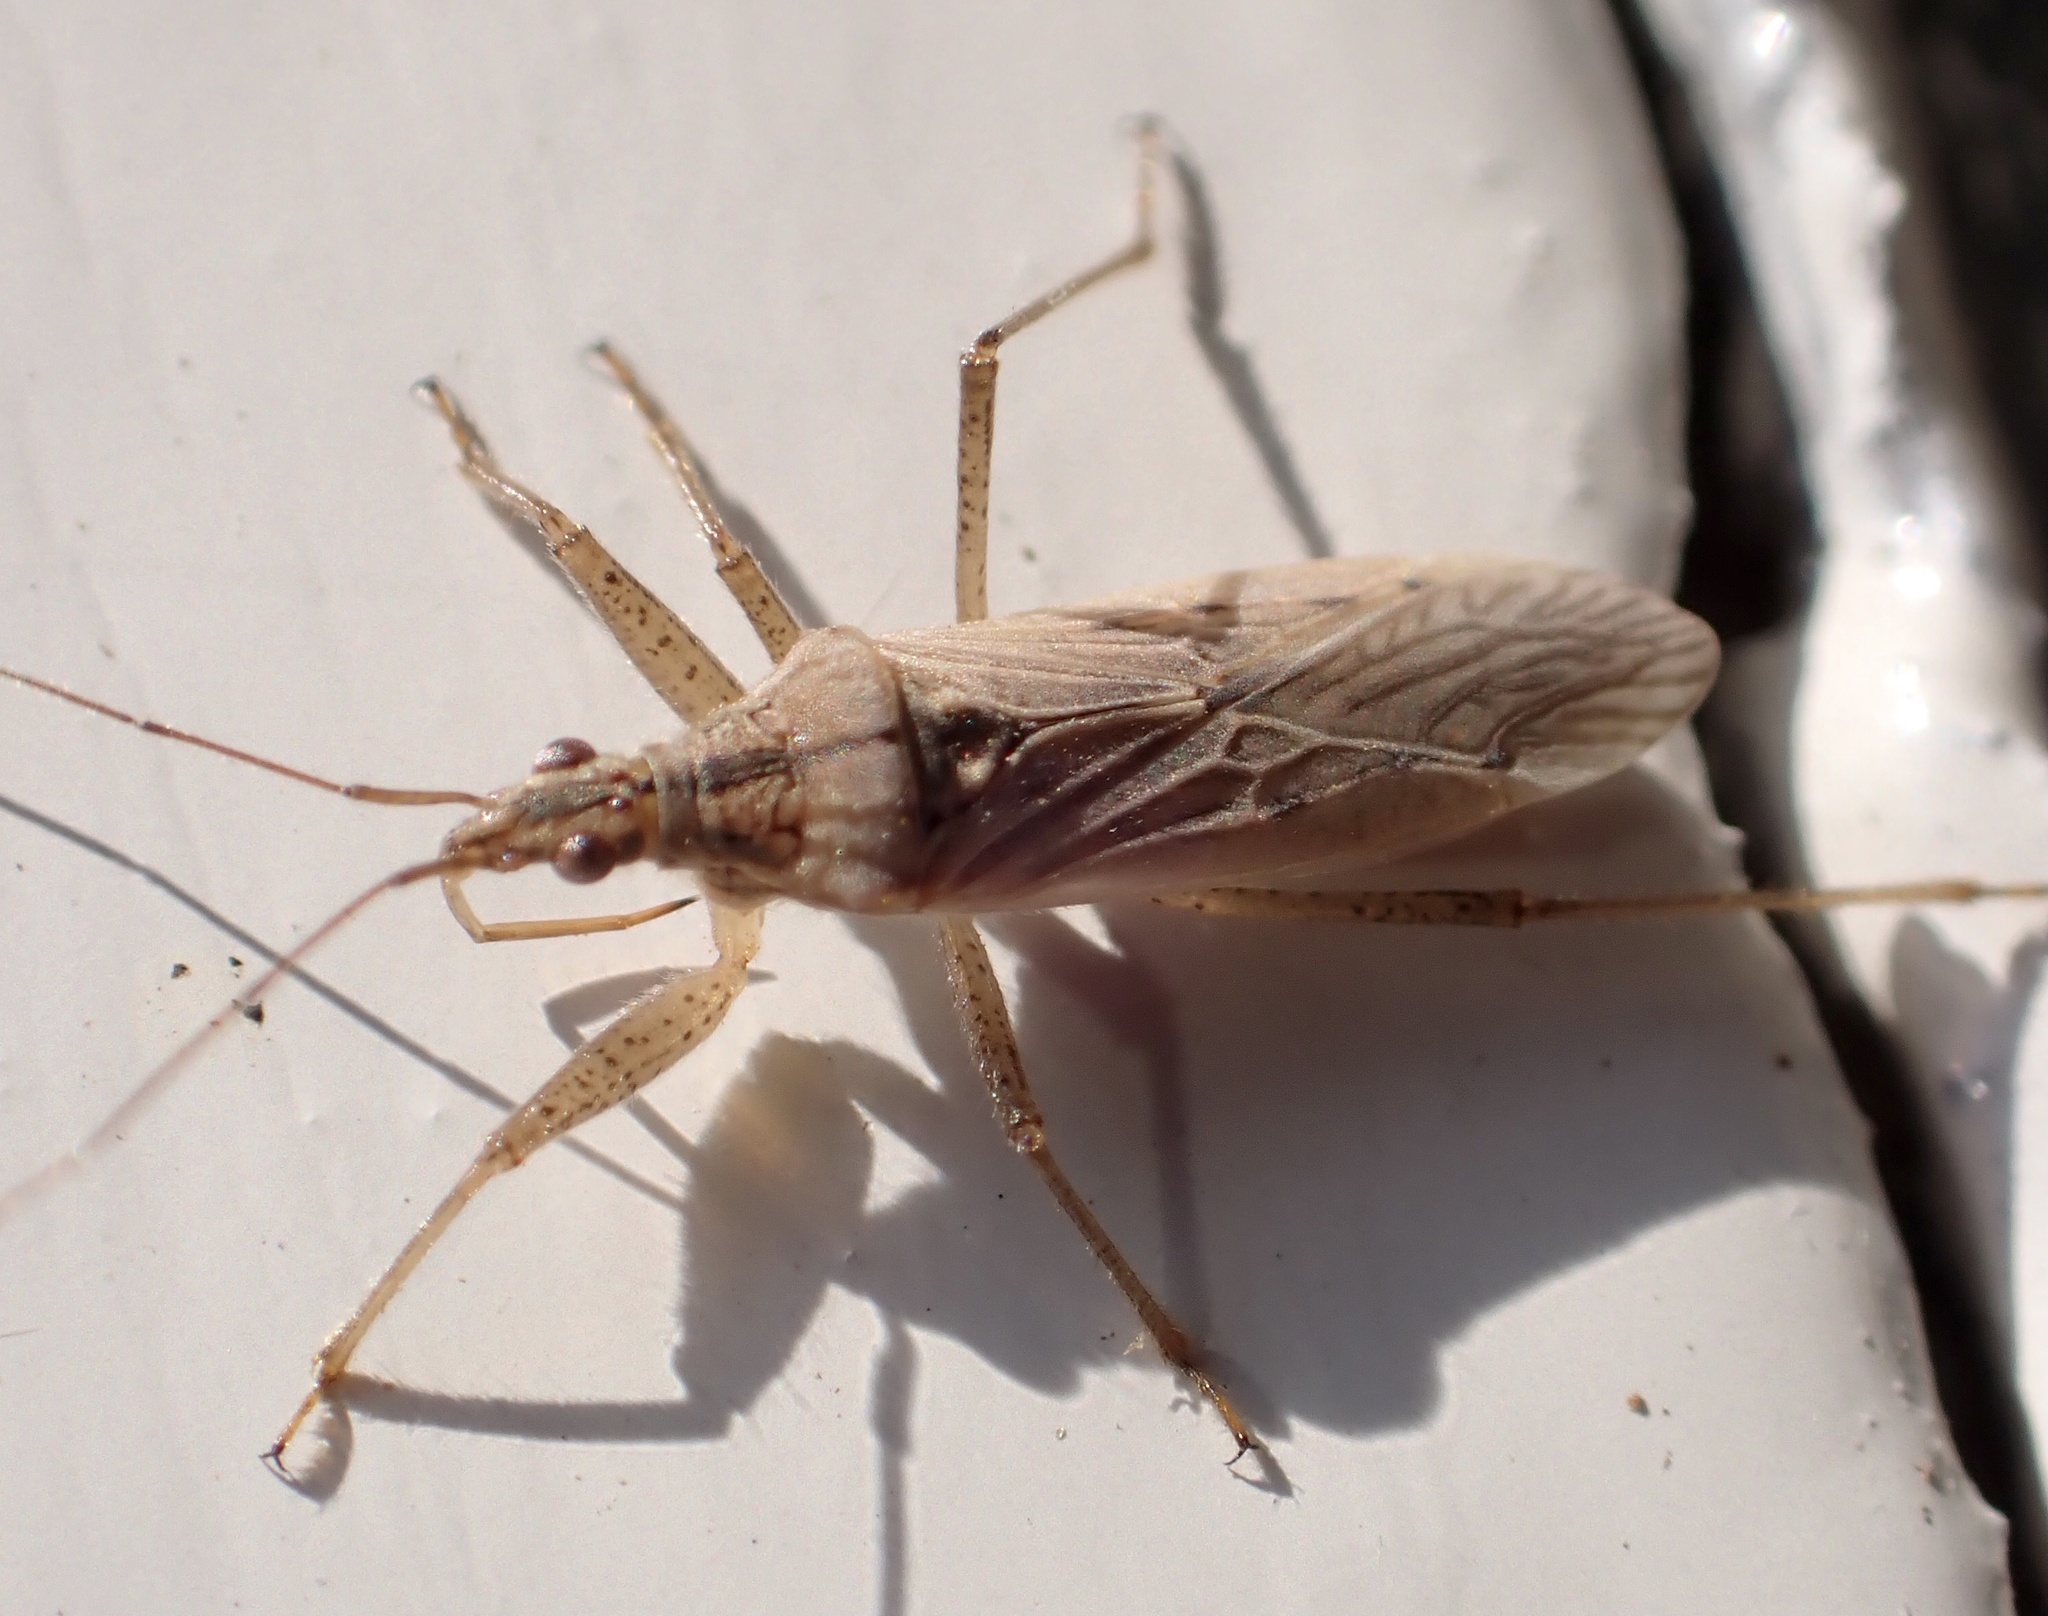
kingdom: Animalia
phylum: Arthropoda
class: Insecta
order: Hemiptera
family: Nabidae
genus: Nabis
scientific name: Nabis
